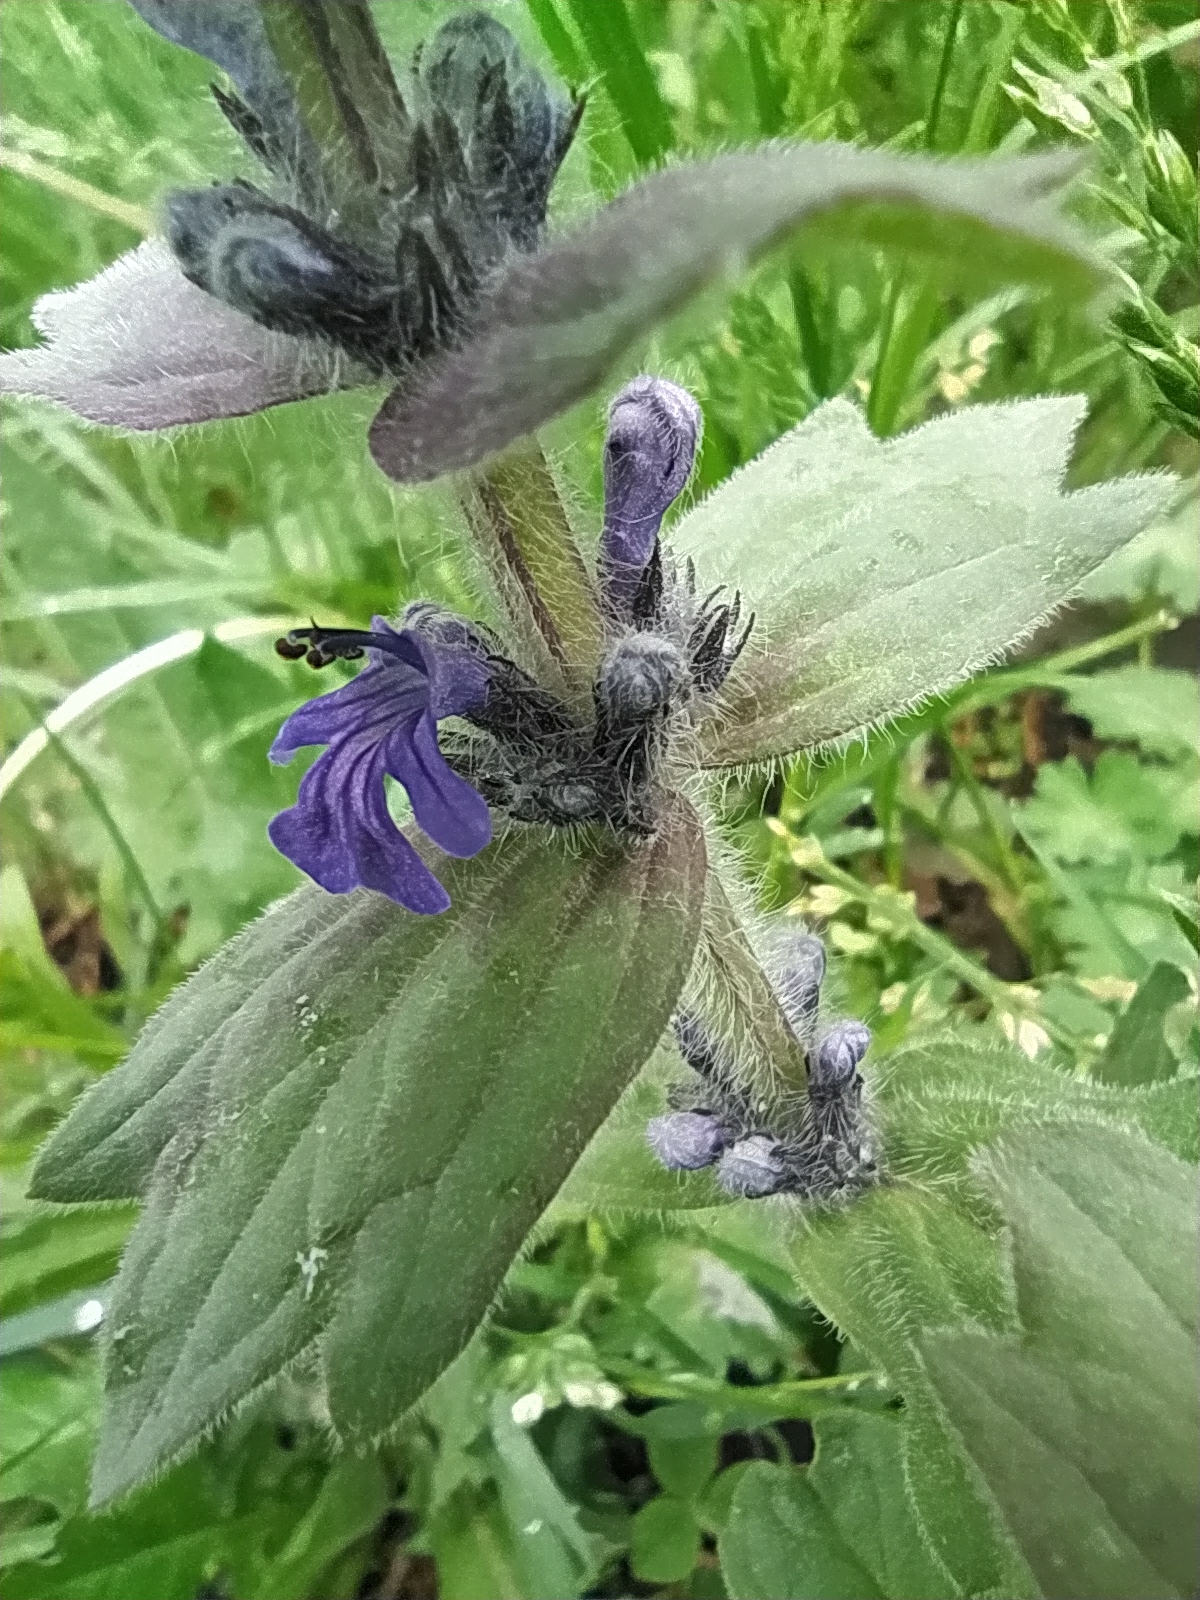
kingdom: Plantae
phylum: Tracheophyta
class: Magnoliopsida
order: Lamiales
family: Lamiaceae
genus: Ajuga
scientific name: Ajuga orientalis
